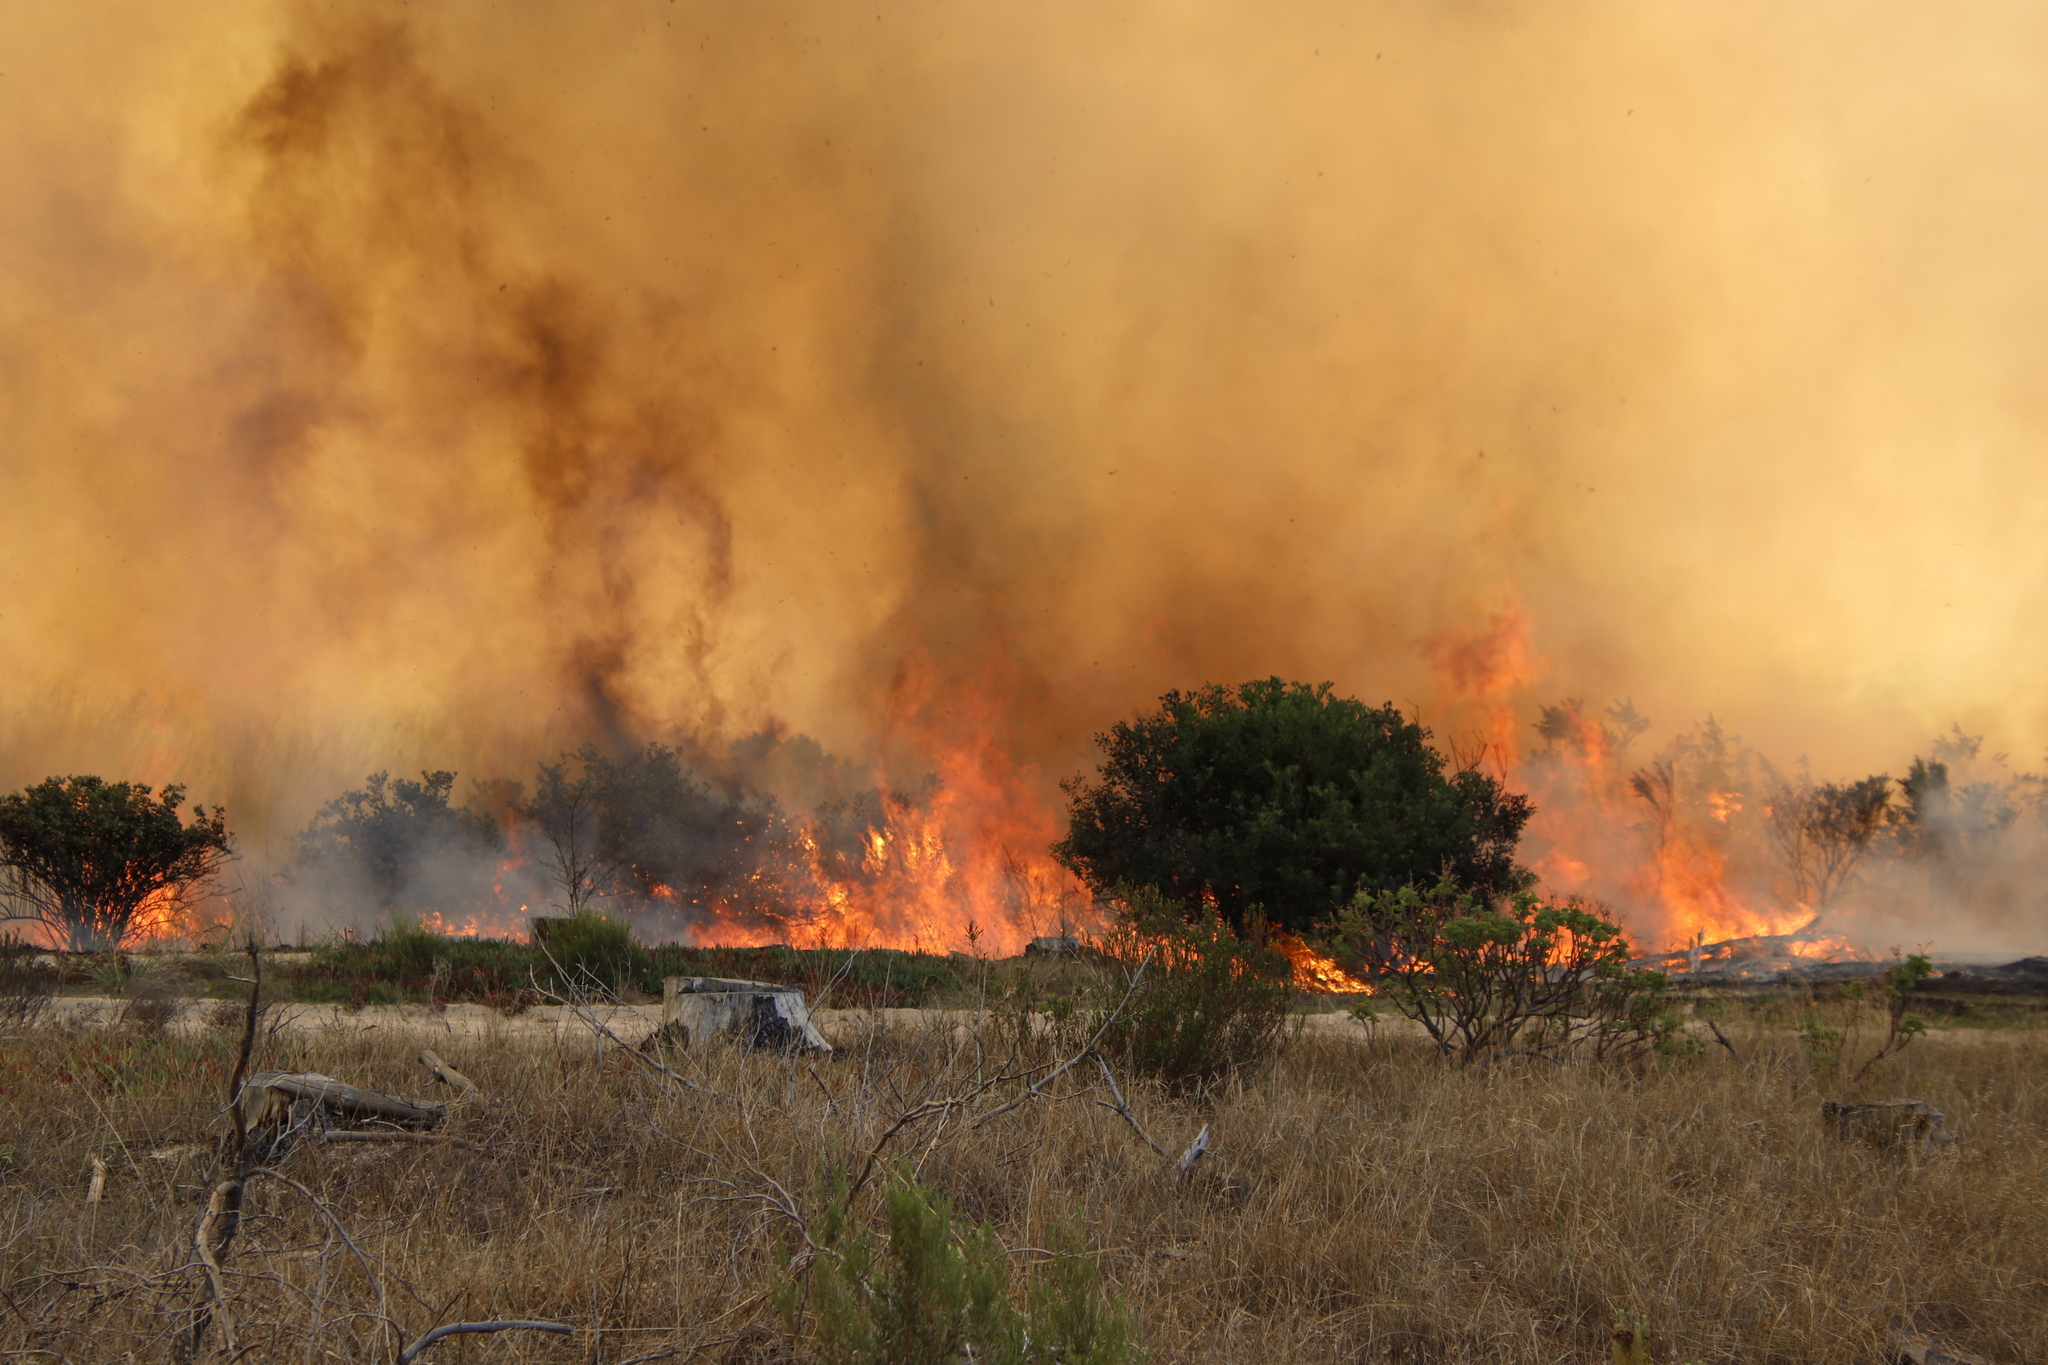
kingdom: Plantae
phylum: Tracheophyta
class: Magnoliopsida
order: Asterales
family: Asteraceae
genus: Osteospermum
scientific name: Osteospermum moniliferum
